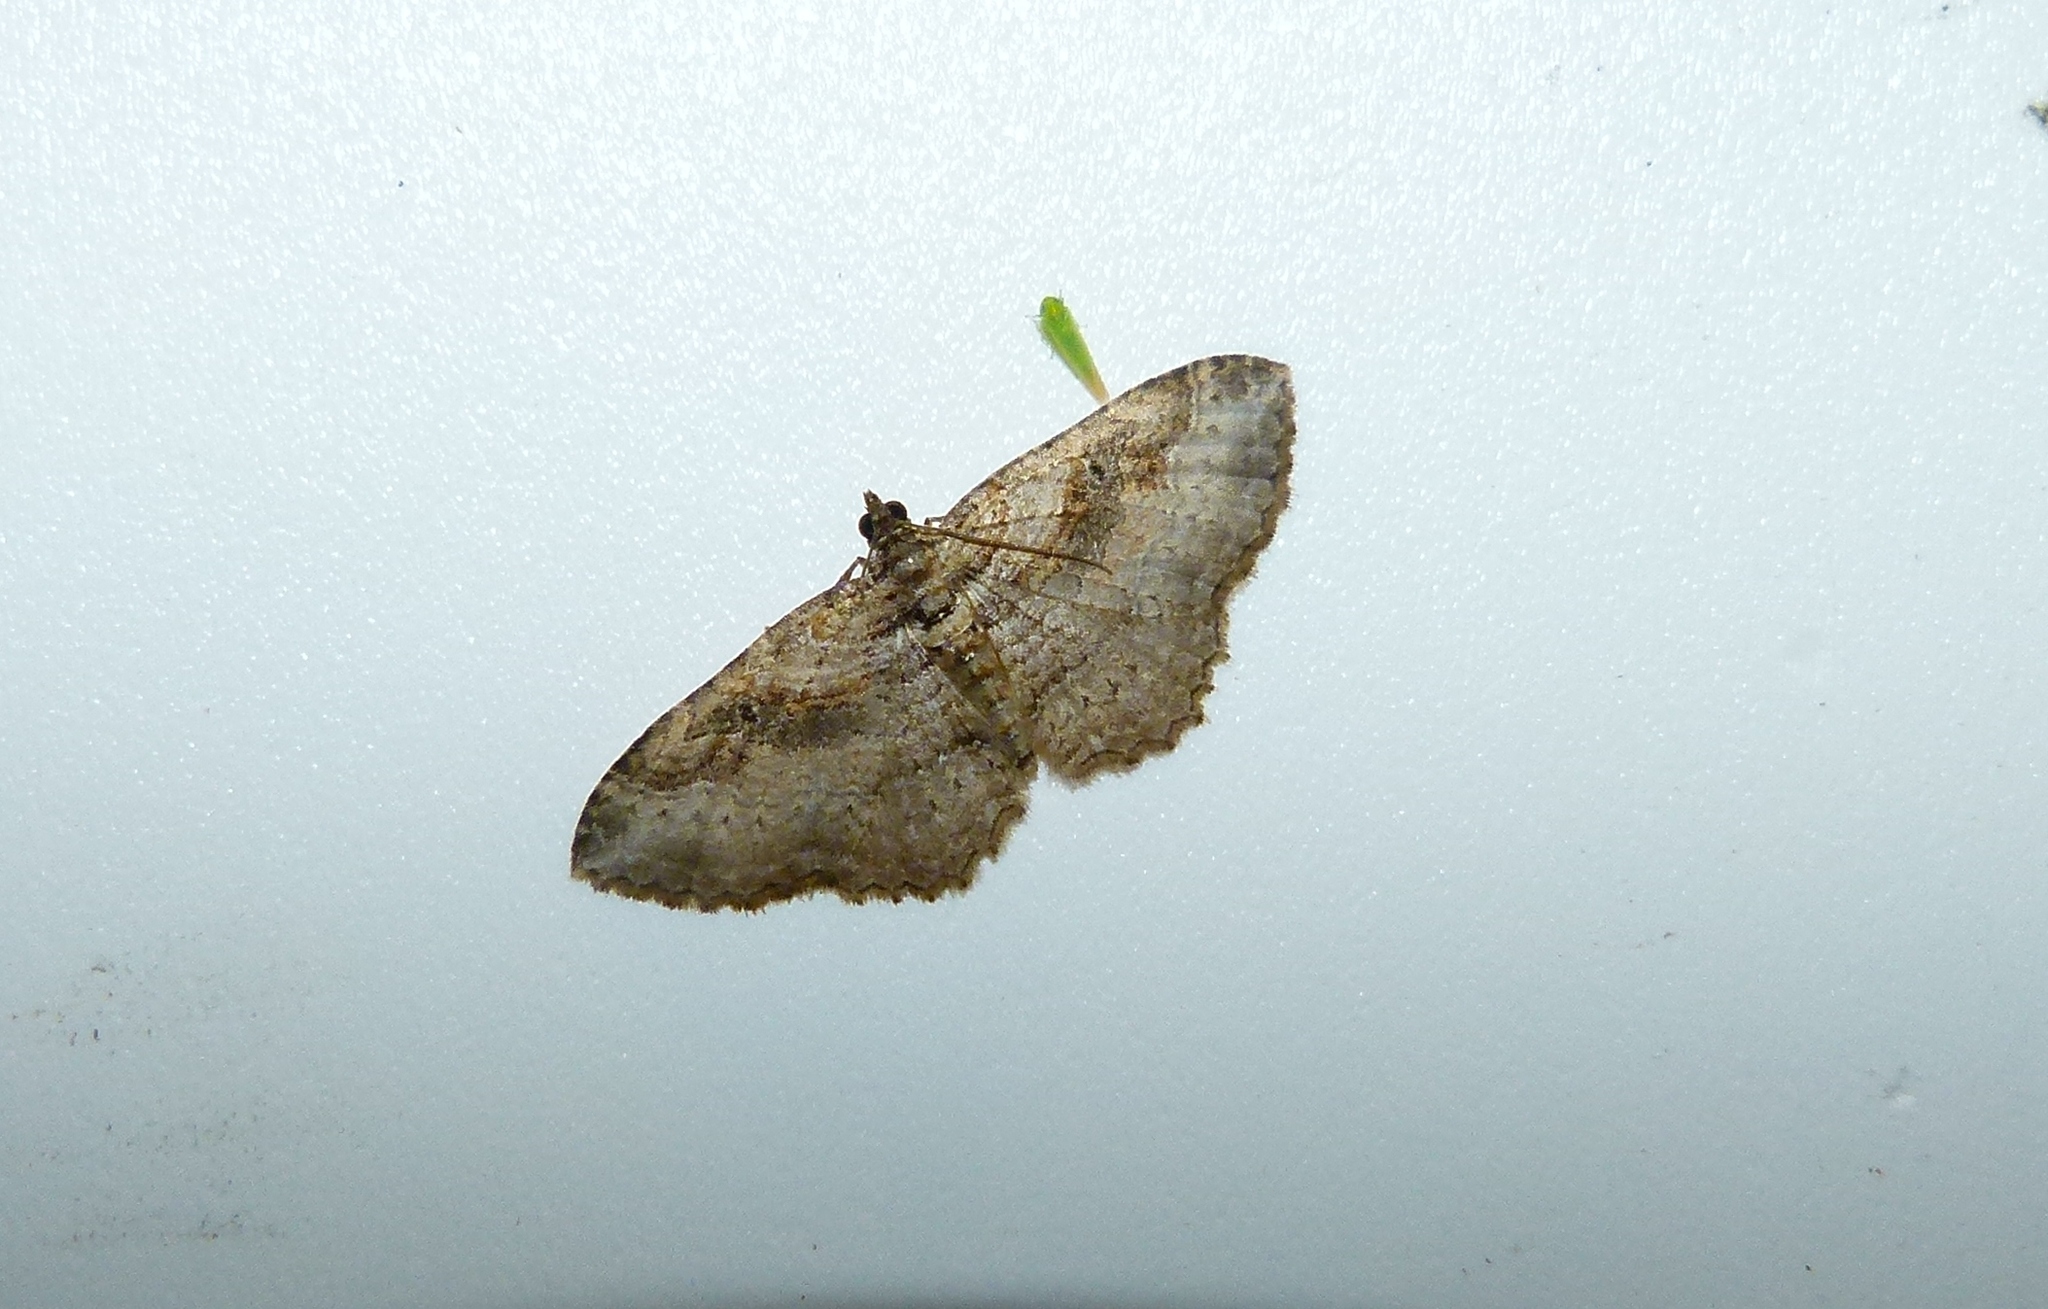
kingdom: Animalia
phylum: Arthropoda
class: Insecta
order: Lepidoptera
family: Geometridae
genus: Costaconvexa
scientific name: Costaconvexa centrostrigaria
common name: Bent-line carpet
